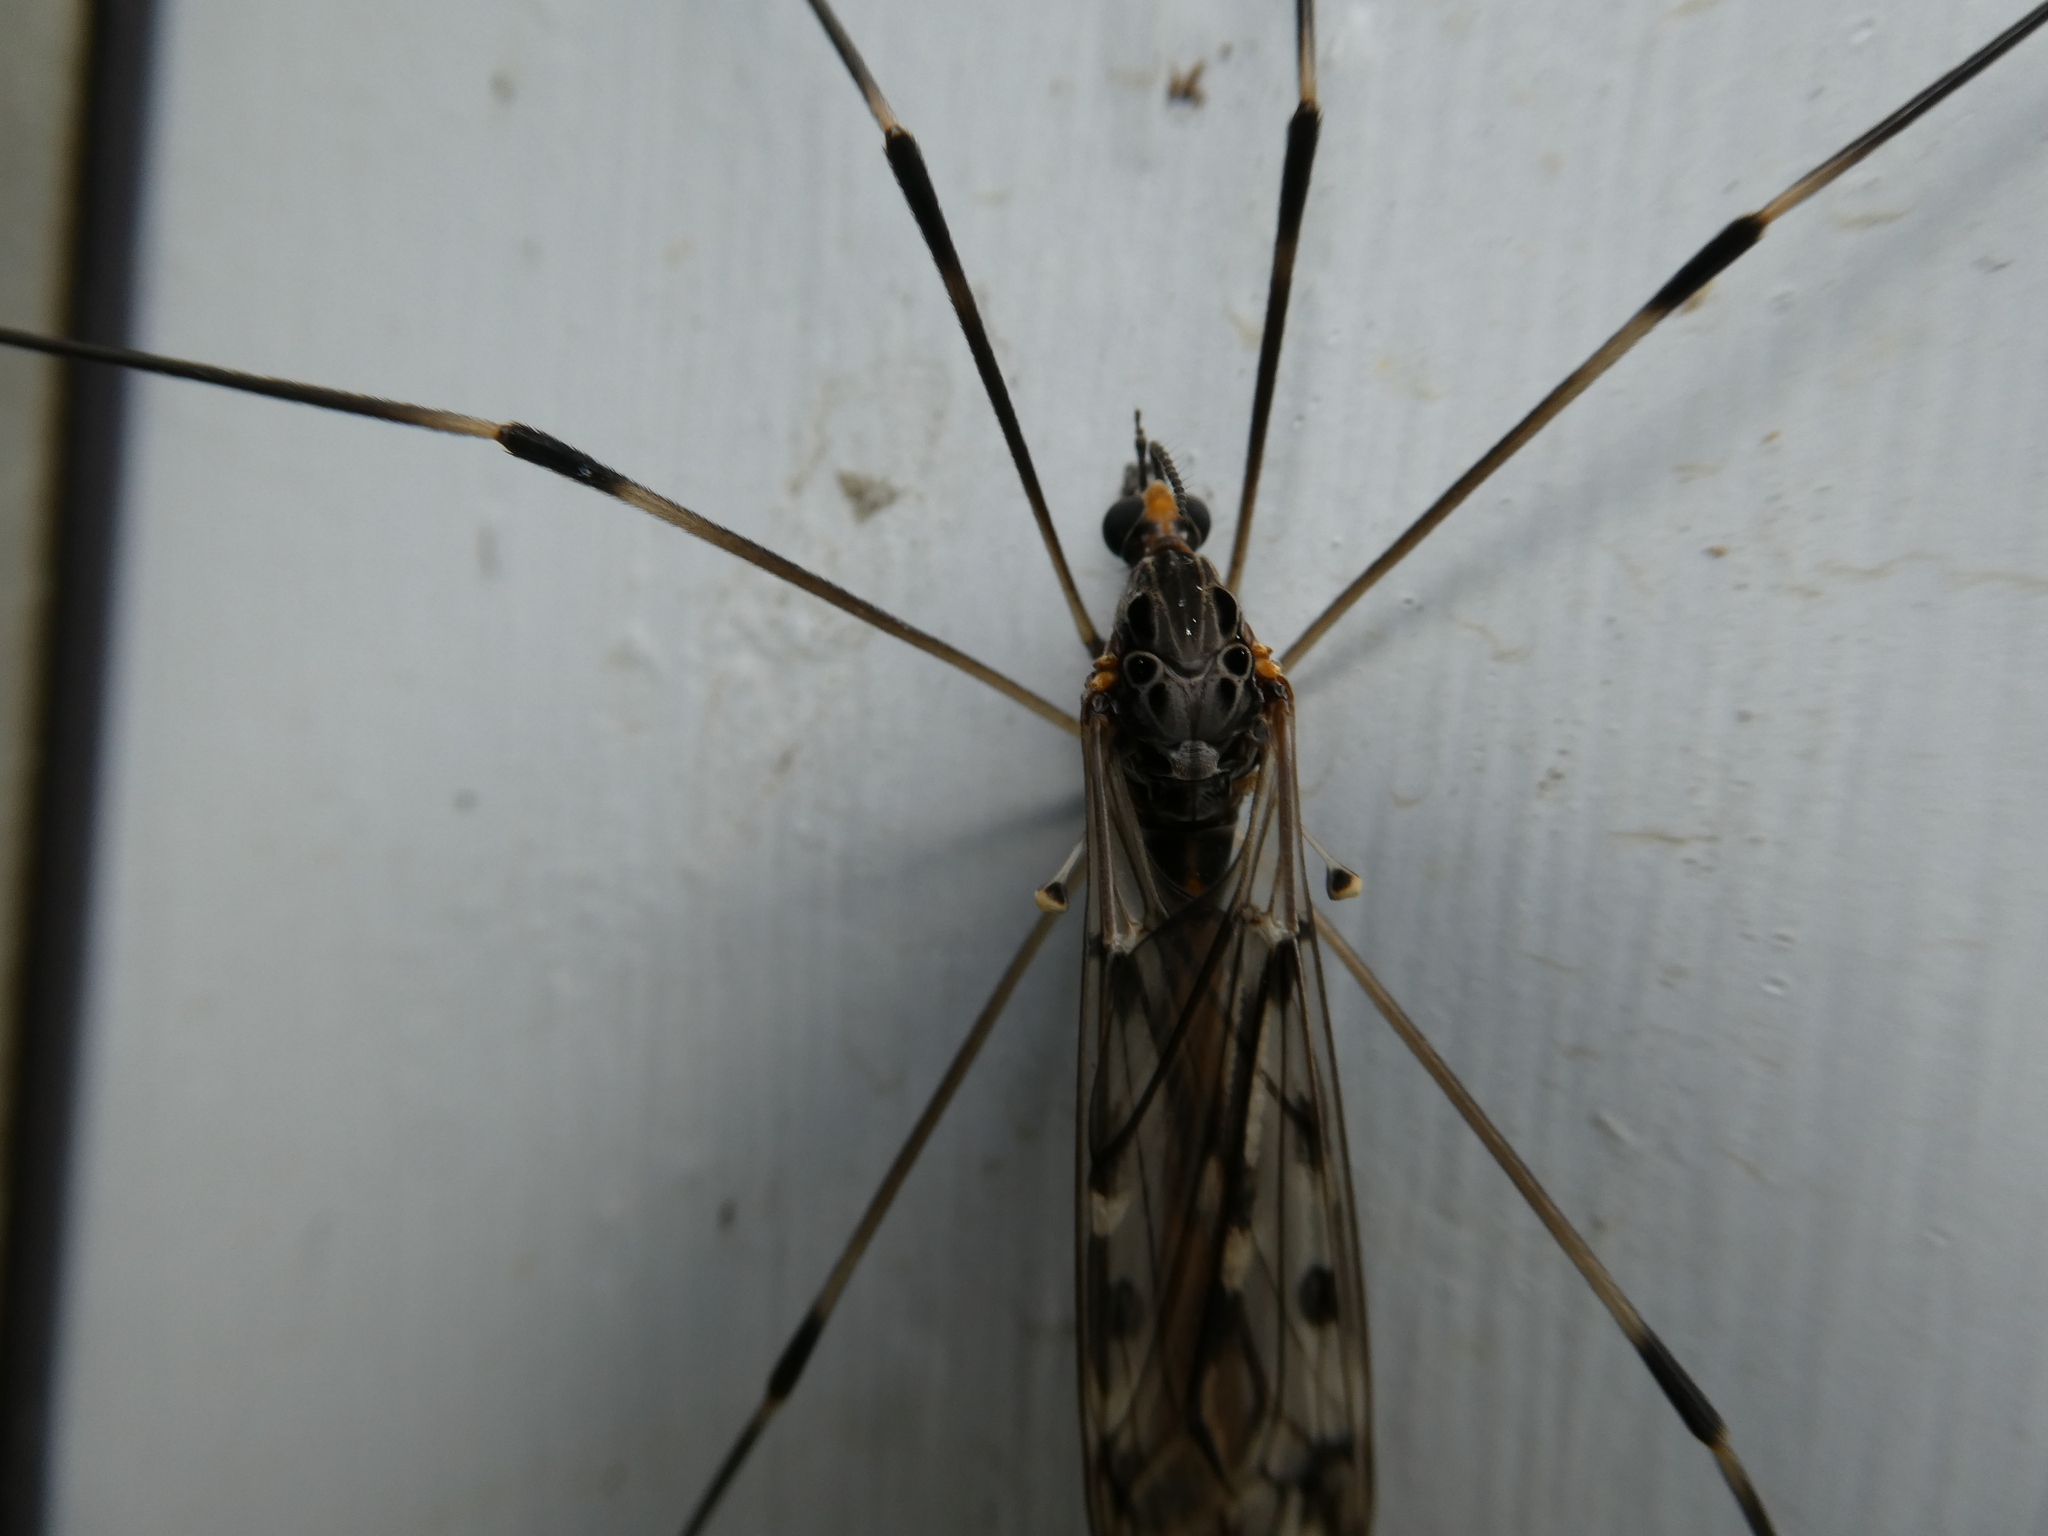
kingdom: Animalia
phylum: Arthropoda
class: Insecta
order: Diptera
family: Tipulidae
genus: Tipula
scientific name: Tipula abdominalis
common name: Giant crane fly
